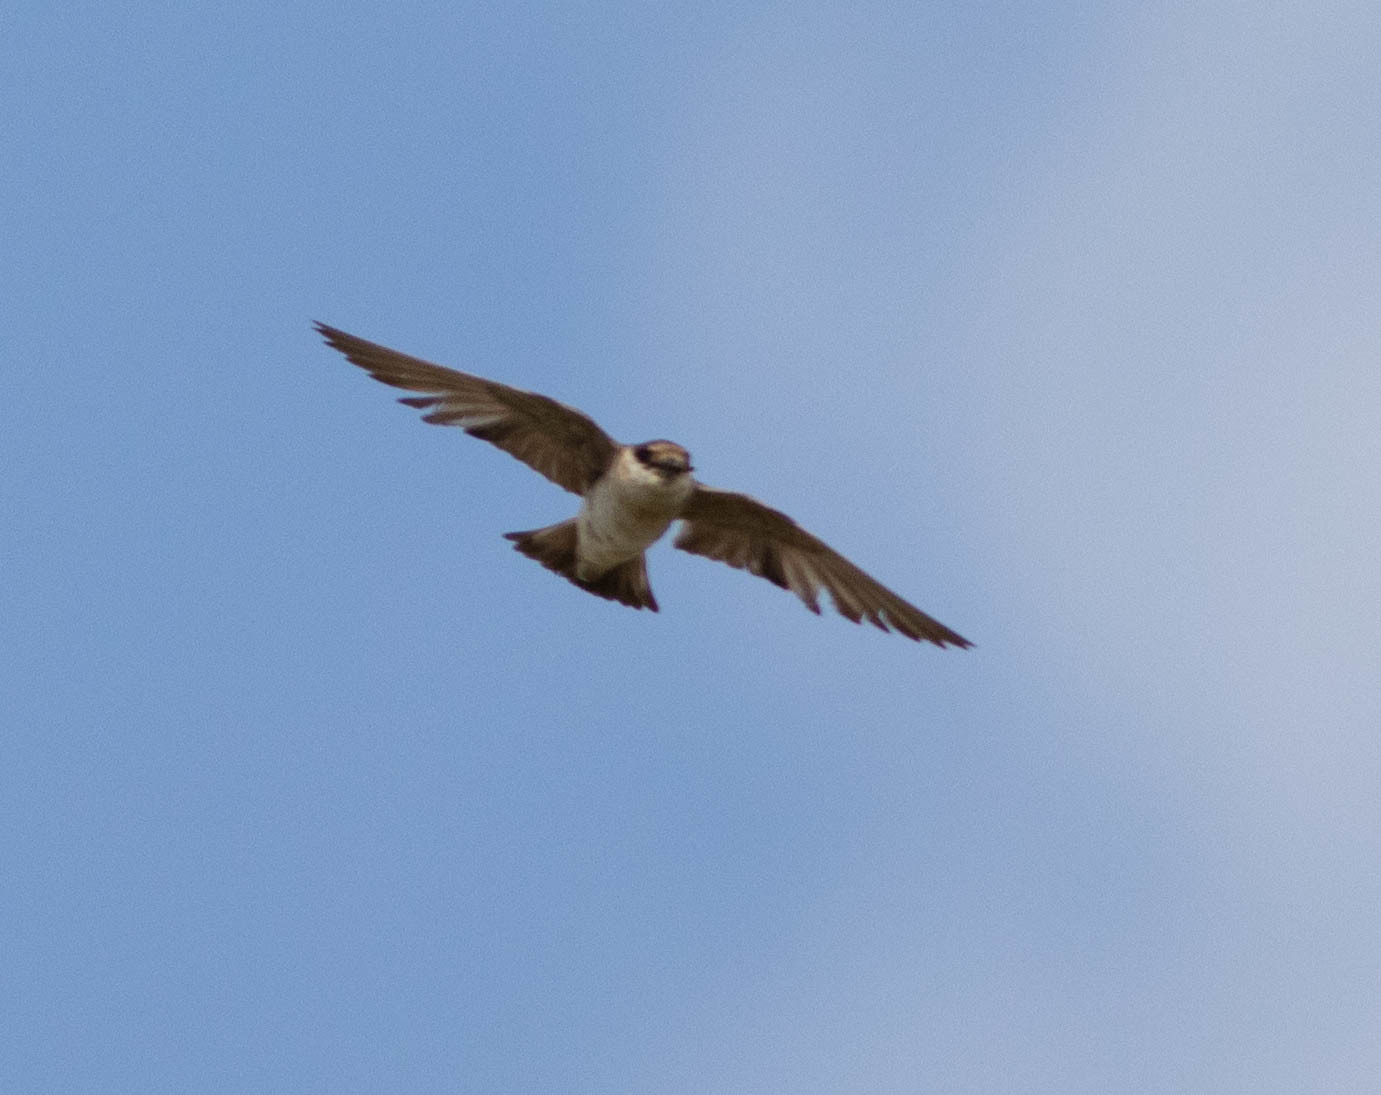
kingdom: Animalia
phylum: Chordata
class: Aves
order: Passeriformes
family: Hirundinidae
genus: Petrochelidon
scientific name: Petrochelidon fulva
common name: Cave swallow
